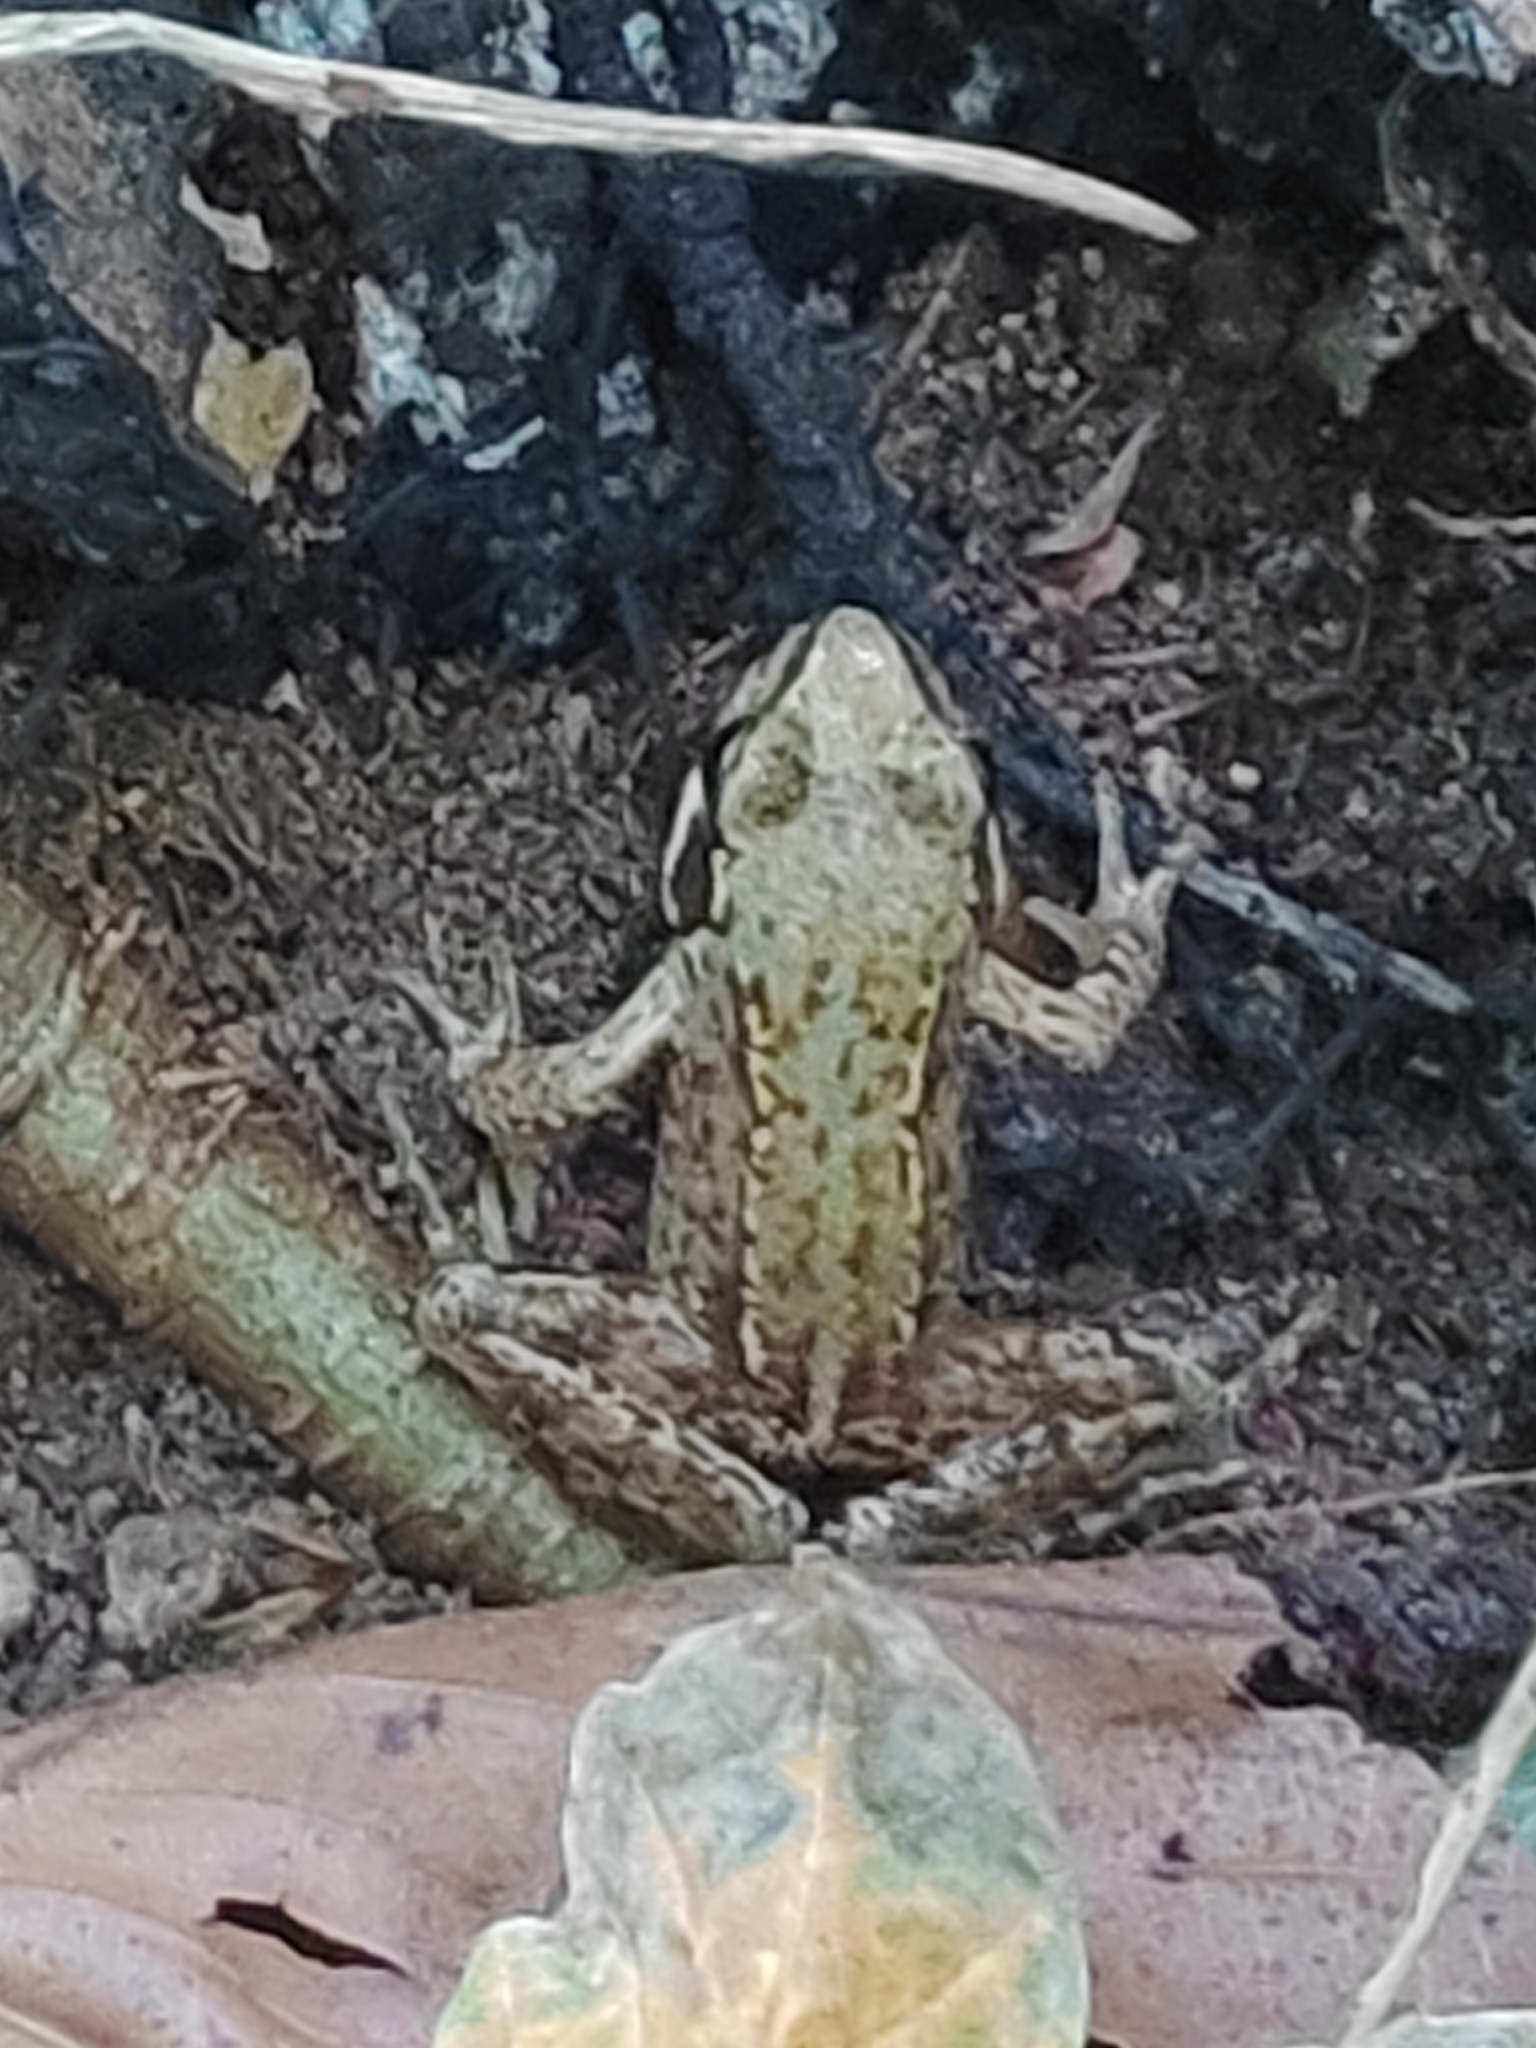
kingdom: Animalia
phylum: Chordata
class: Amphibia
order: Anura
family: Ranidae
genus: Rana
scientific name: Rana temporaria
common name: Common frog
